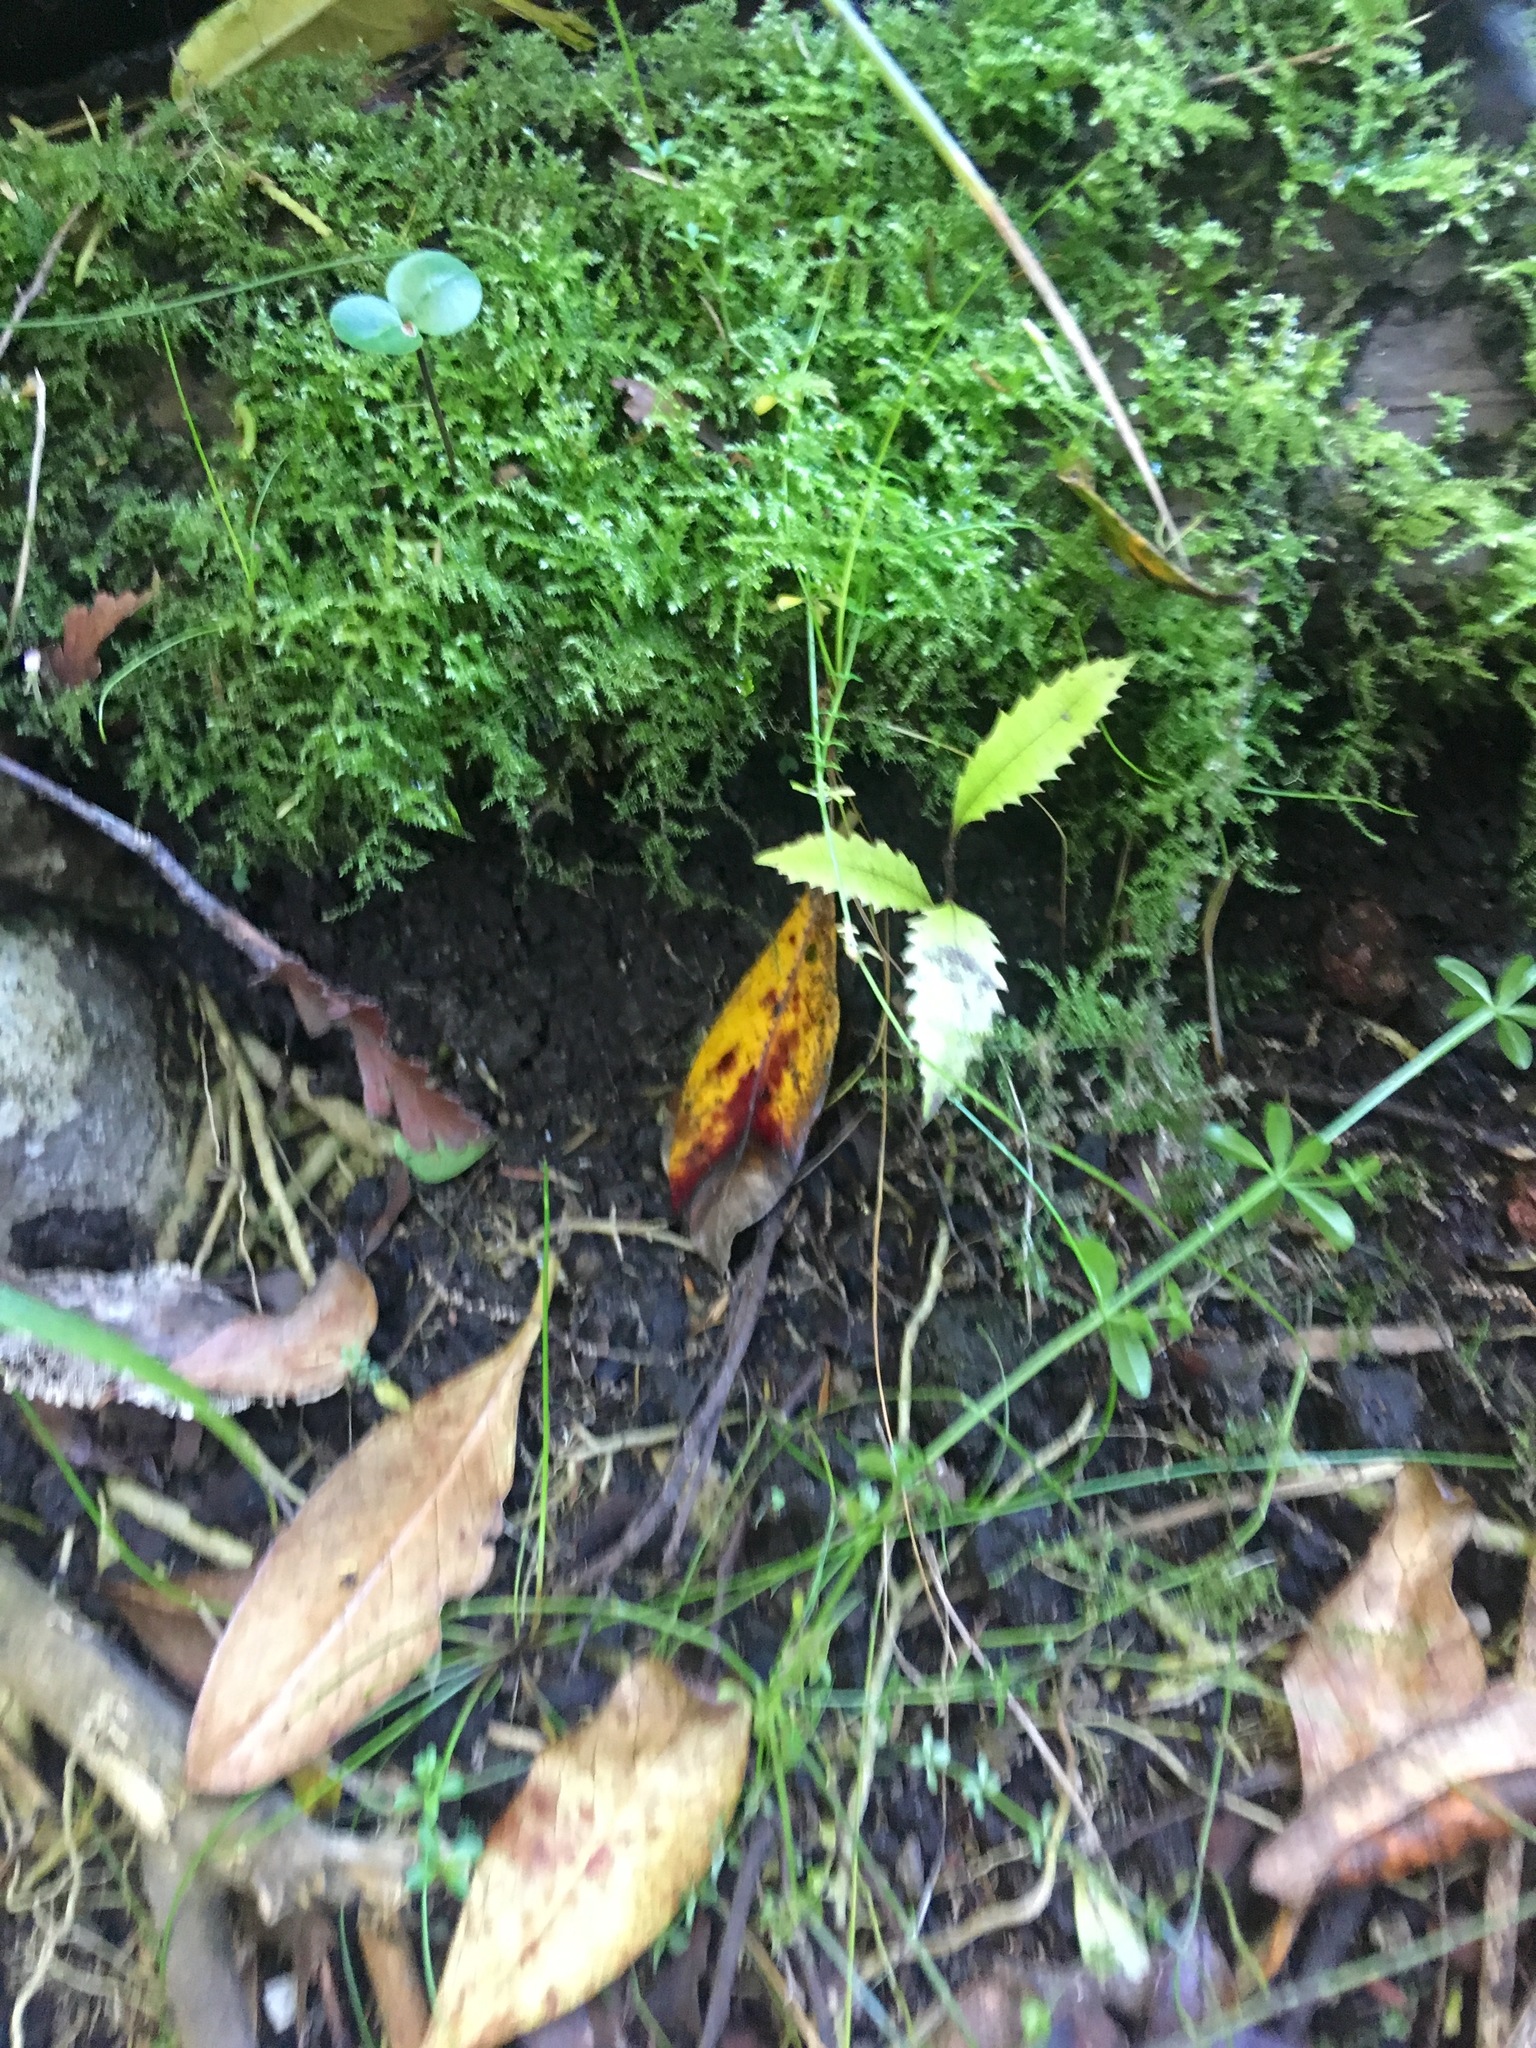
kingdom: Plantae
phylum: Tracheophyta
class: Magnoliopsida
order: Proteales
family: Proteaceae
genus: Knightia
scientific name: Knightia excelsa
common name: New zealand-honeysuckle
